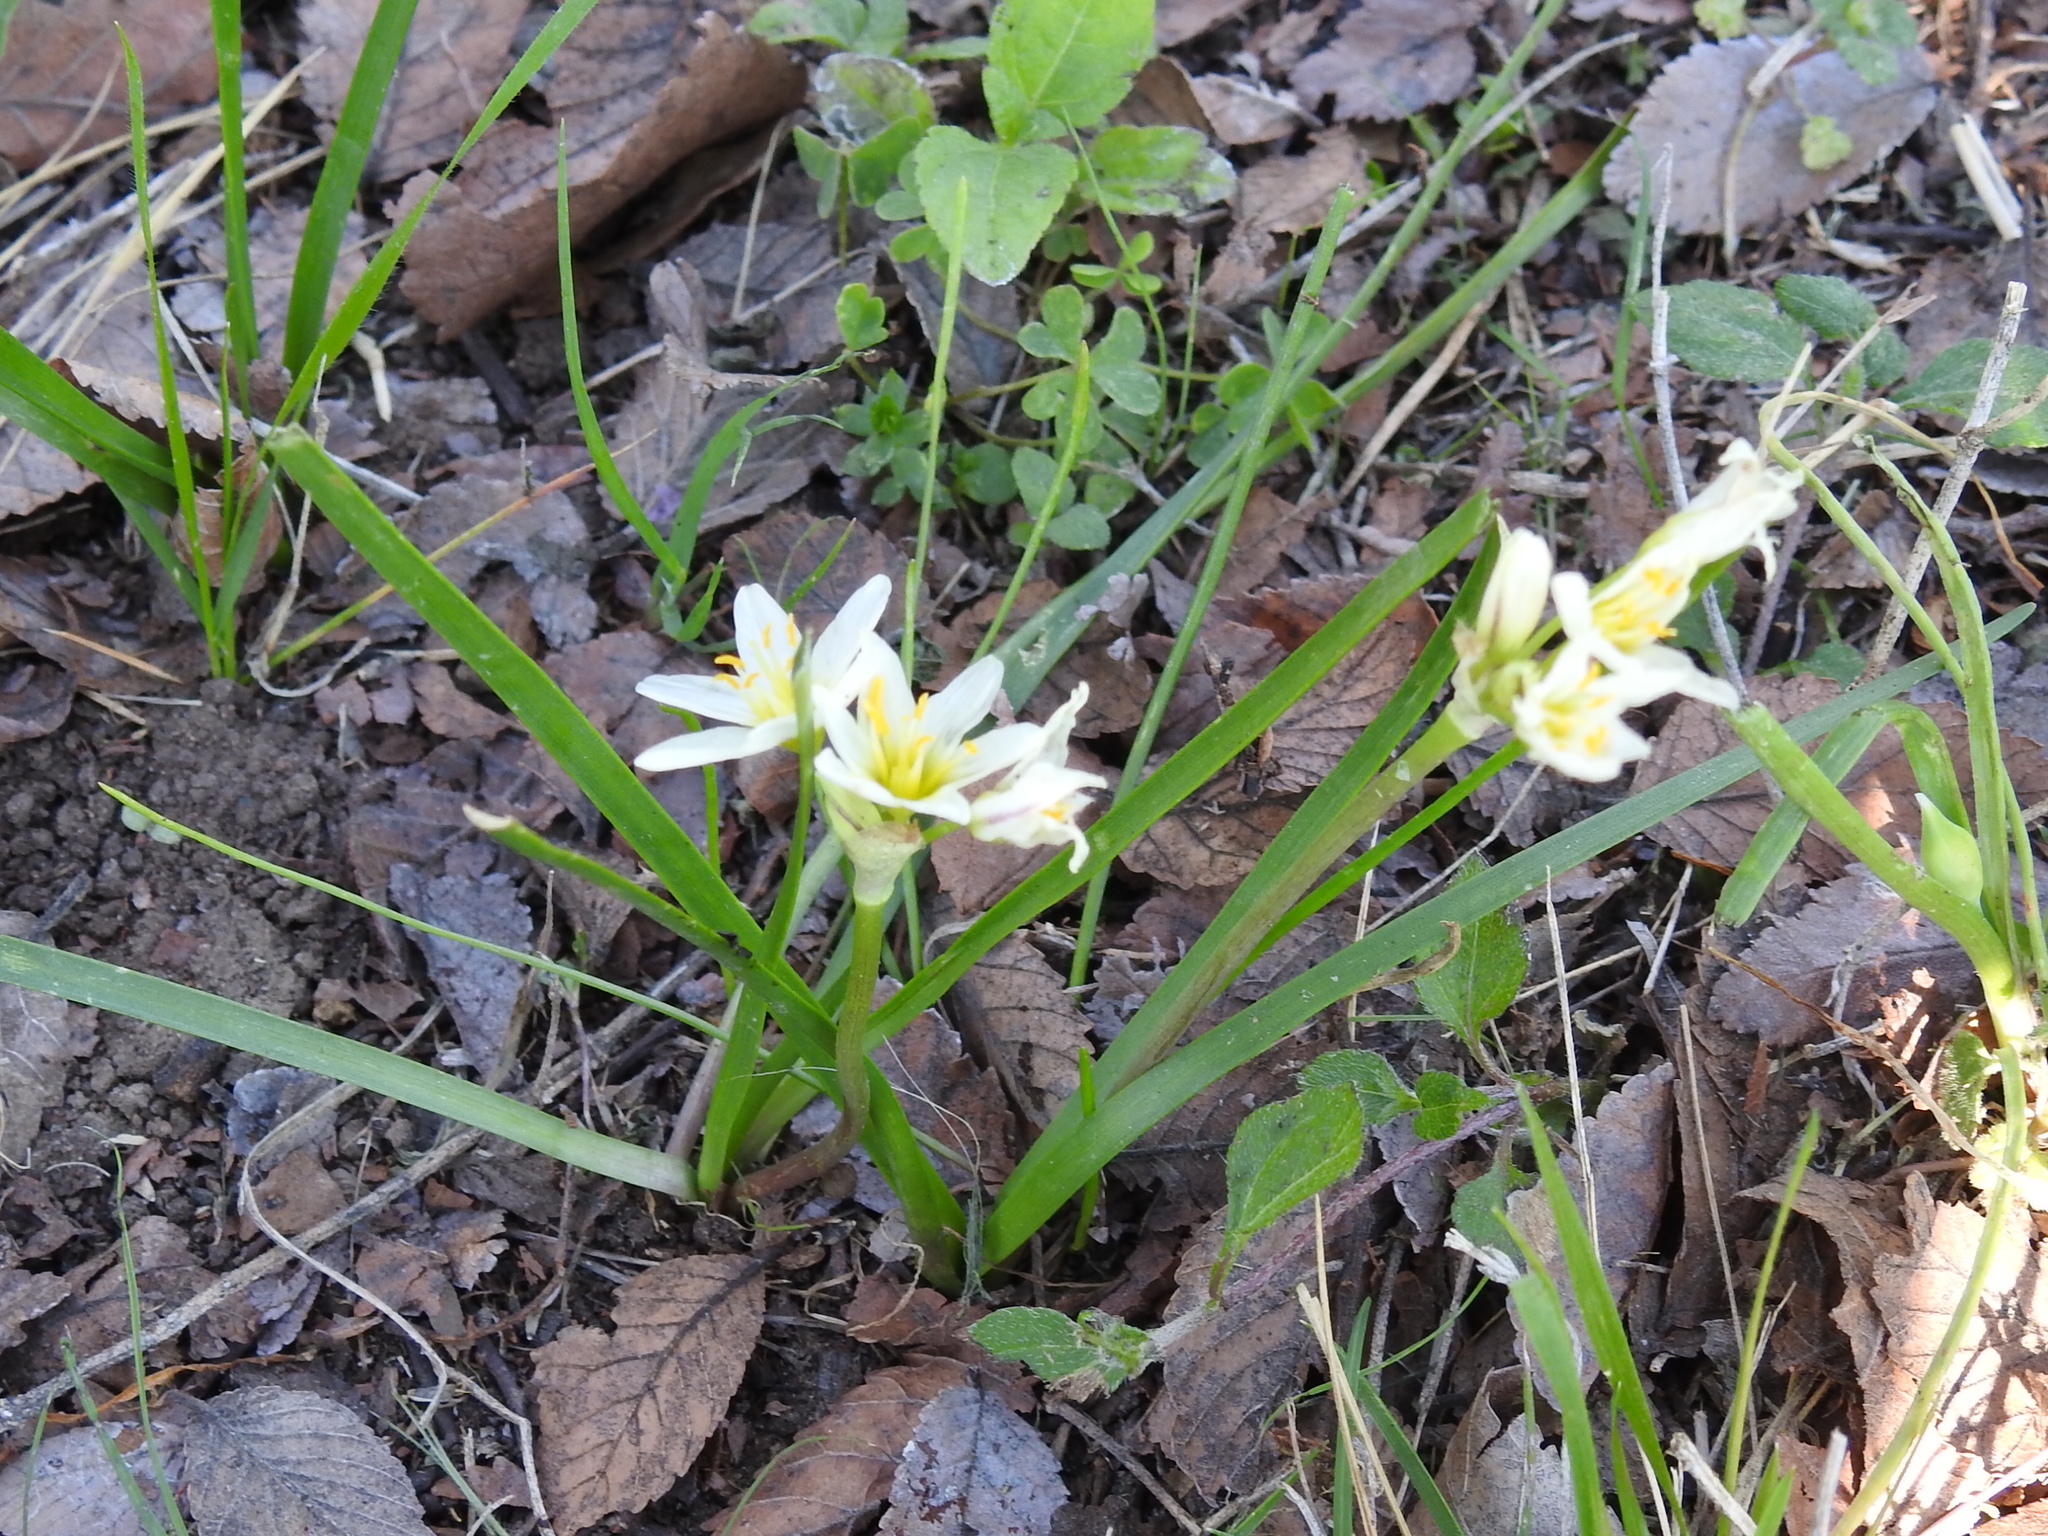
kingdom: Plantae
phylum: Tracheophyta
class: Liliopsida
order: Asparagales
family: Amaryllidaceae
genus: Nothoscordum
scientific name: Nothoscordum bivalve
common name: Crow-poison
